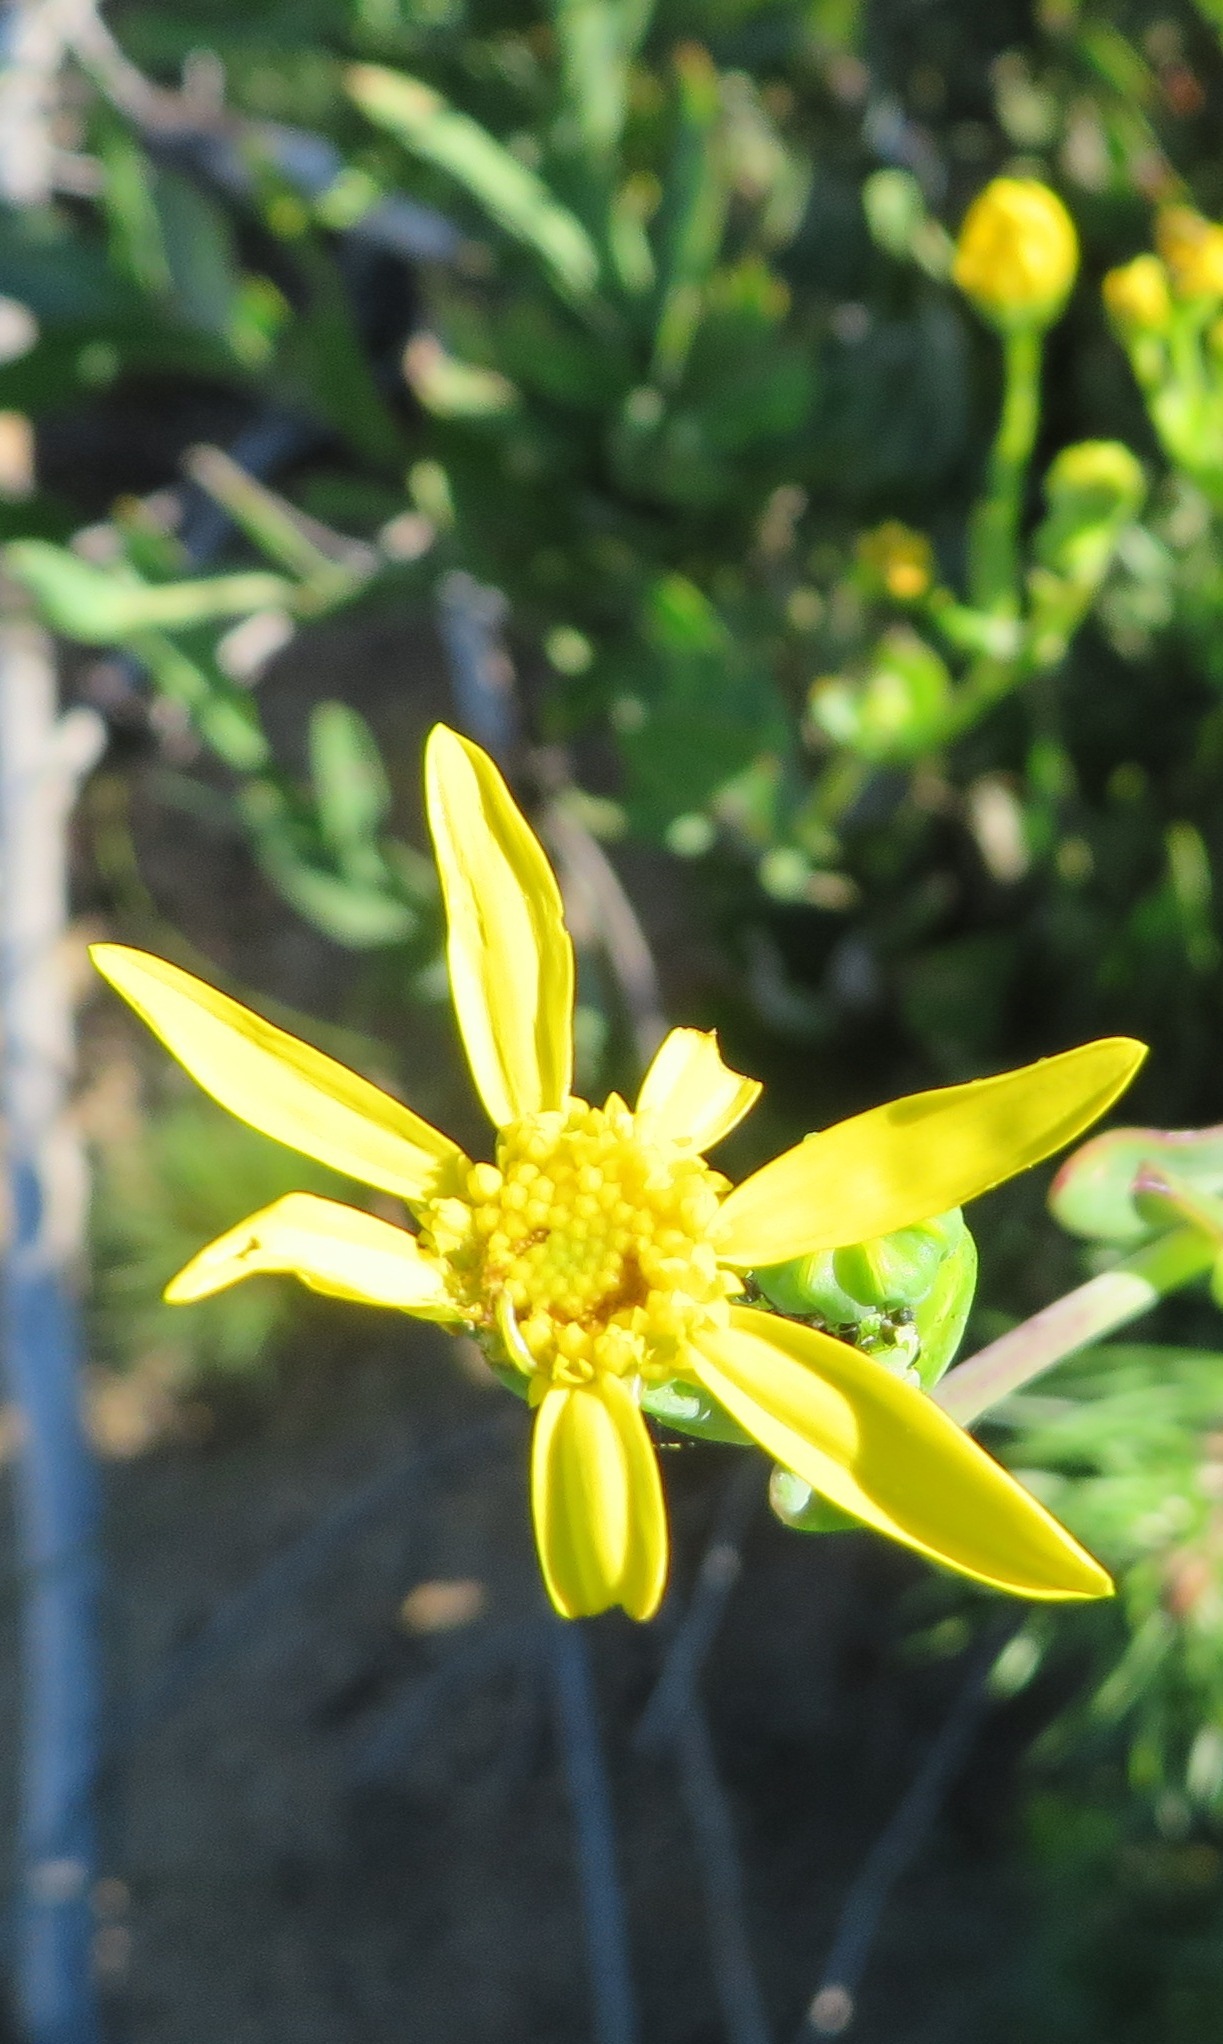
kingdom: Plantae
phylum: Tracheophyta
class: Magnoliopsida
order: Asterales
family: Asteraceae
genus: Othonna
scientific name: Othonna quinquedentata
